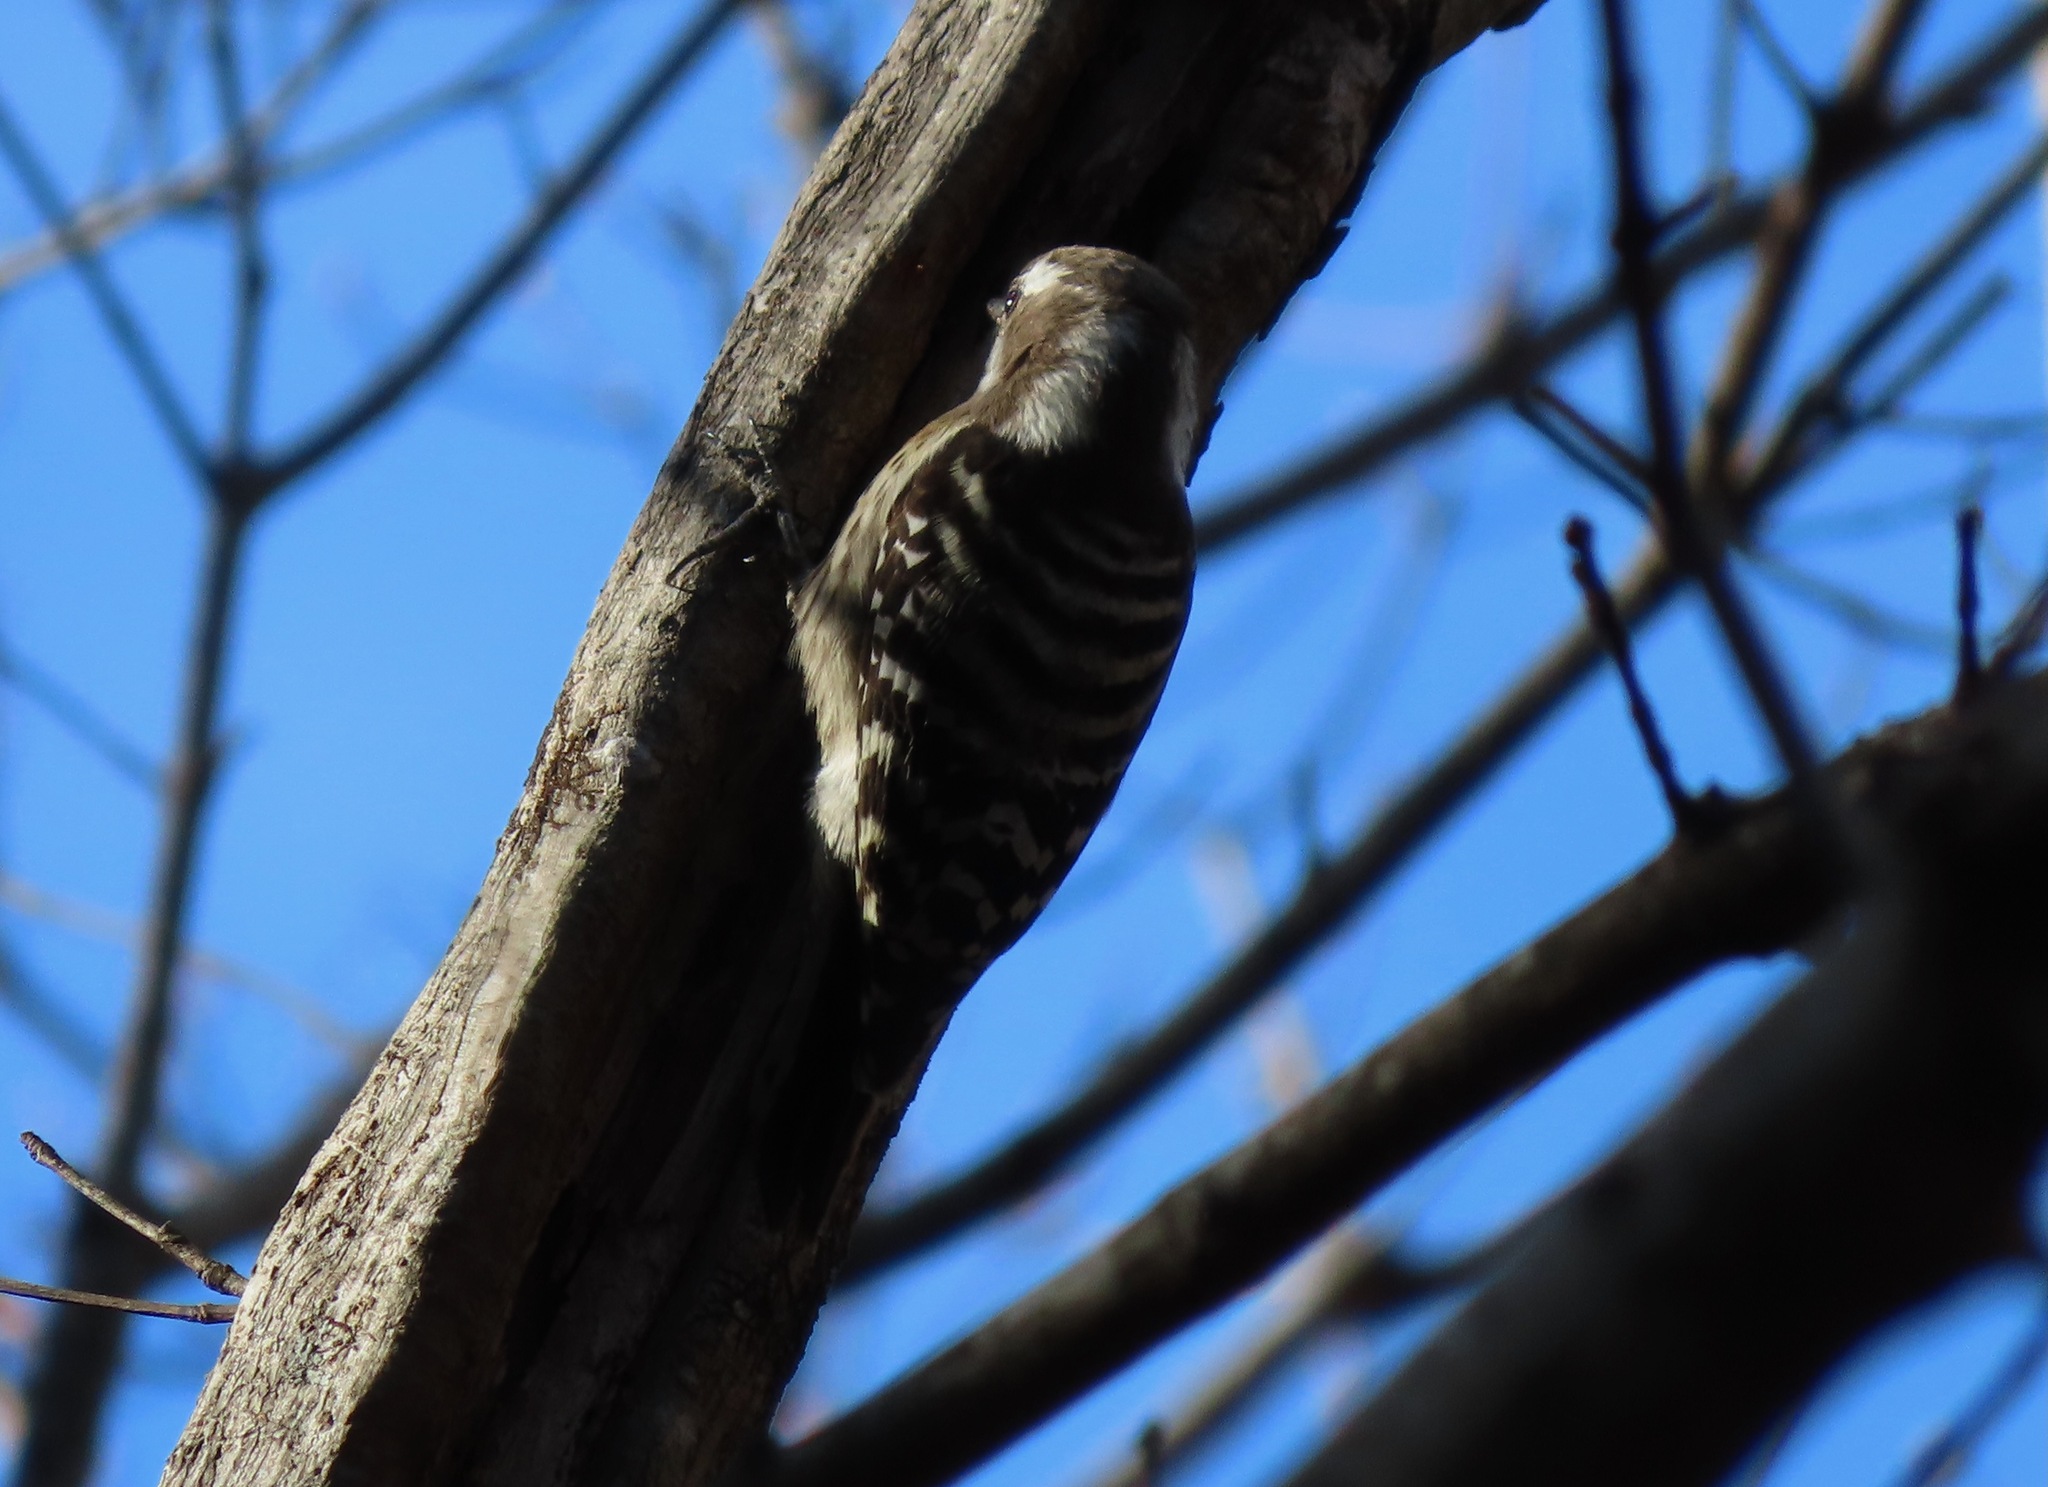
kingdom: Animalia
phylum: Chordata
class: Aves
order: Piciformes
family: Picidae
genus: Yungipicus
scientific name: Yungipicus kizuki
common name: Japanese pygmy woodpecker
